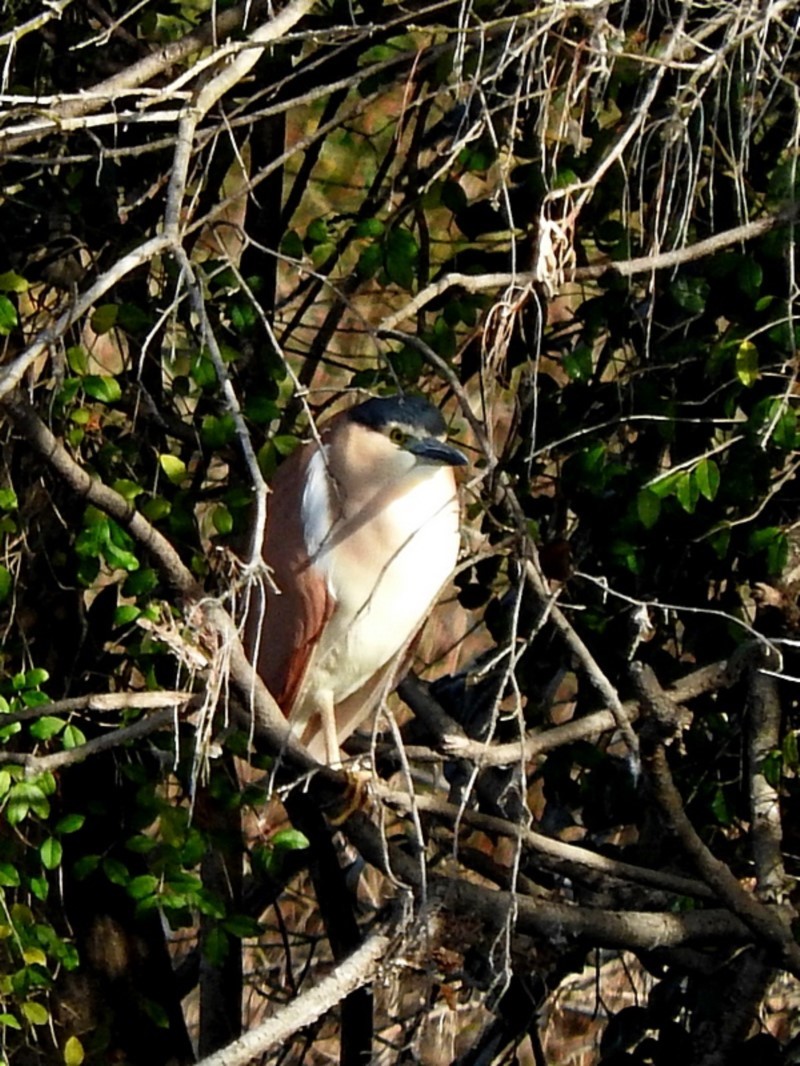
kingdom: Animalia
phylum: Chordata
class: Aves
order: Pelecaniformes
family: Ardeidae
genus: Nycticorax
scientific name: Nycticorax caledonicus
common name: Rufous night-heron
